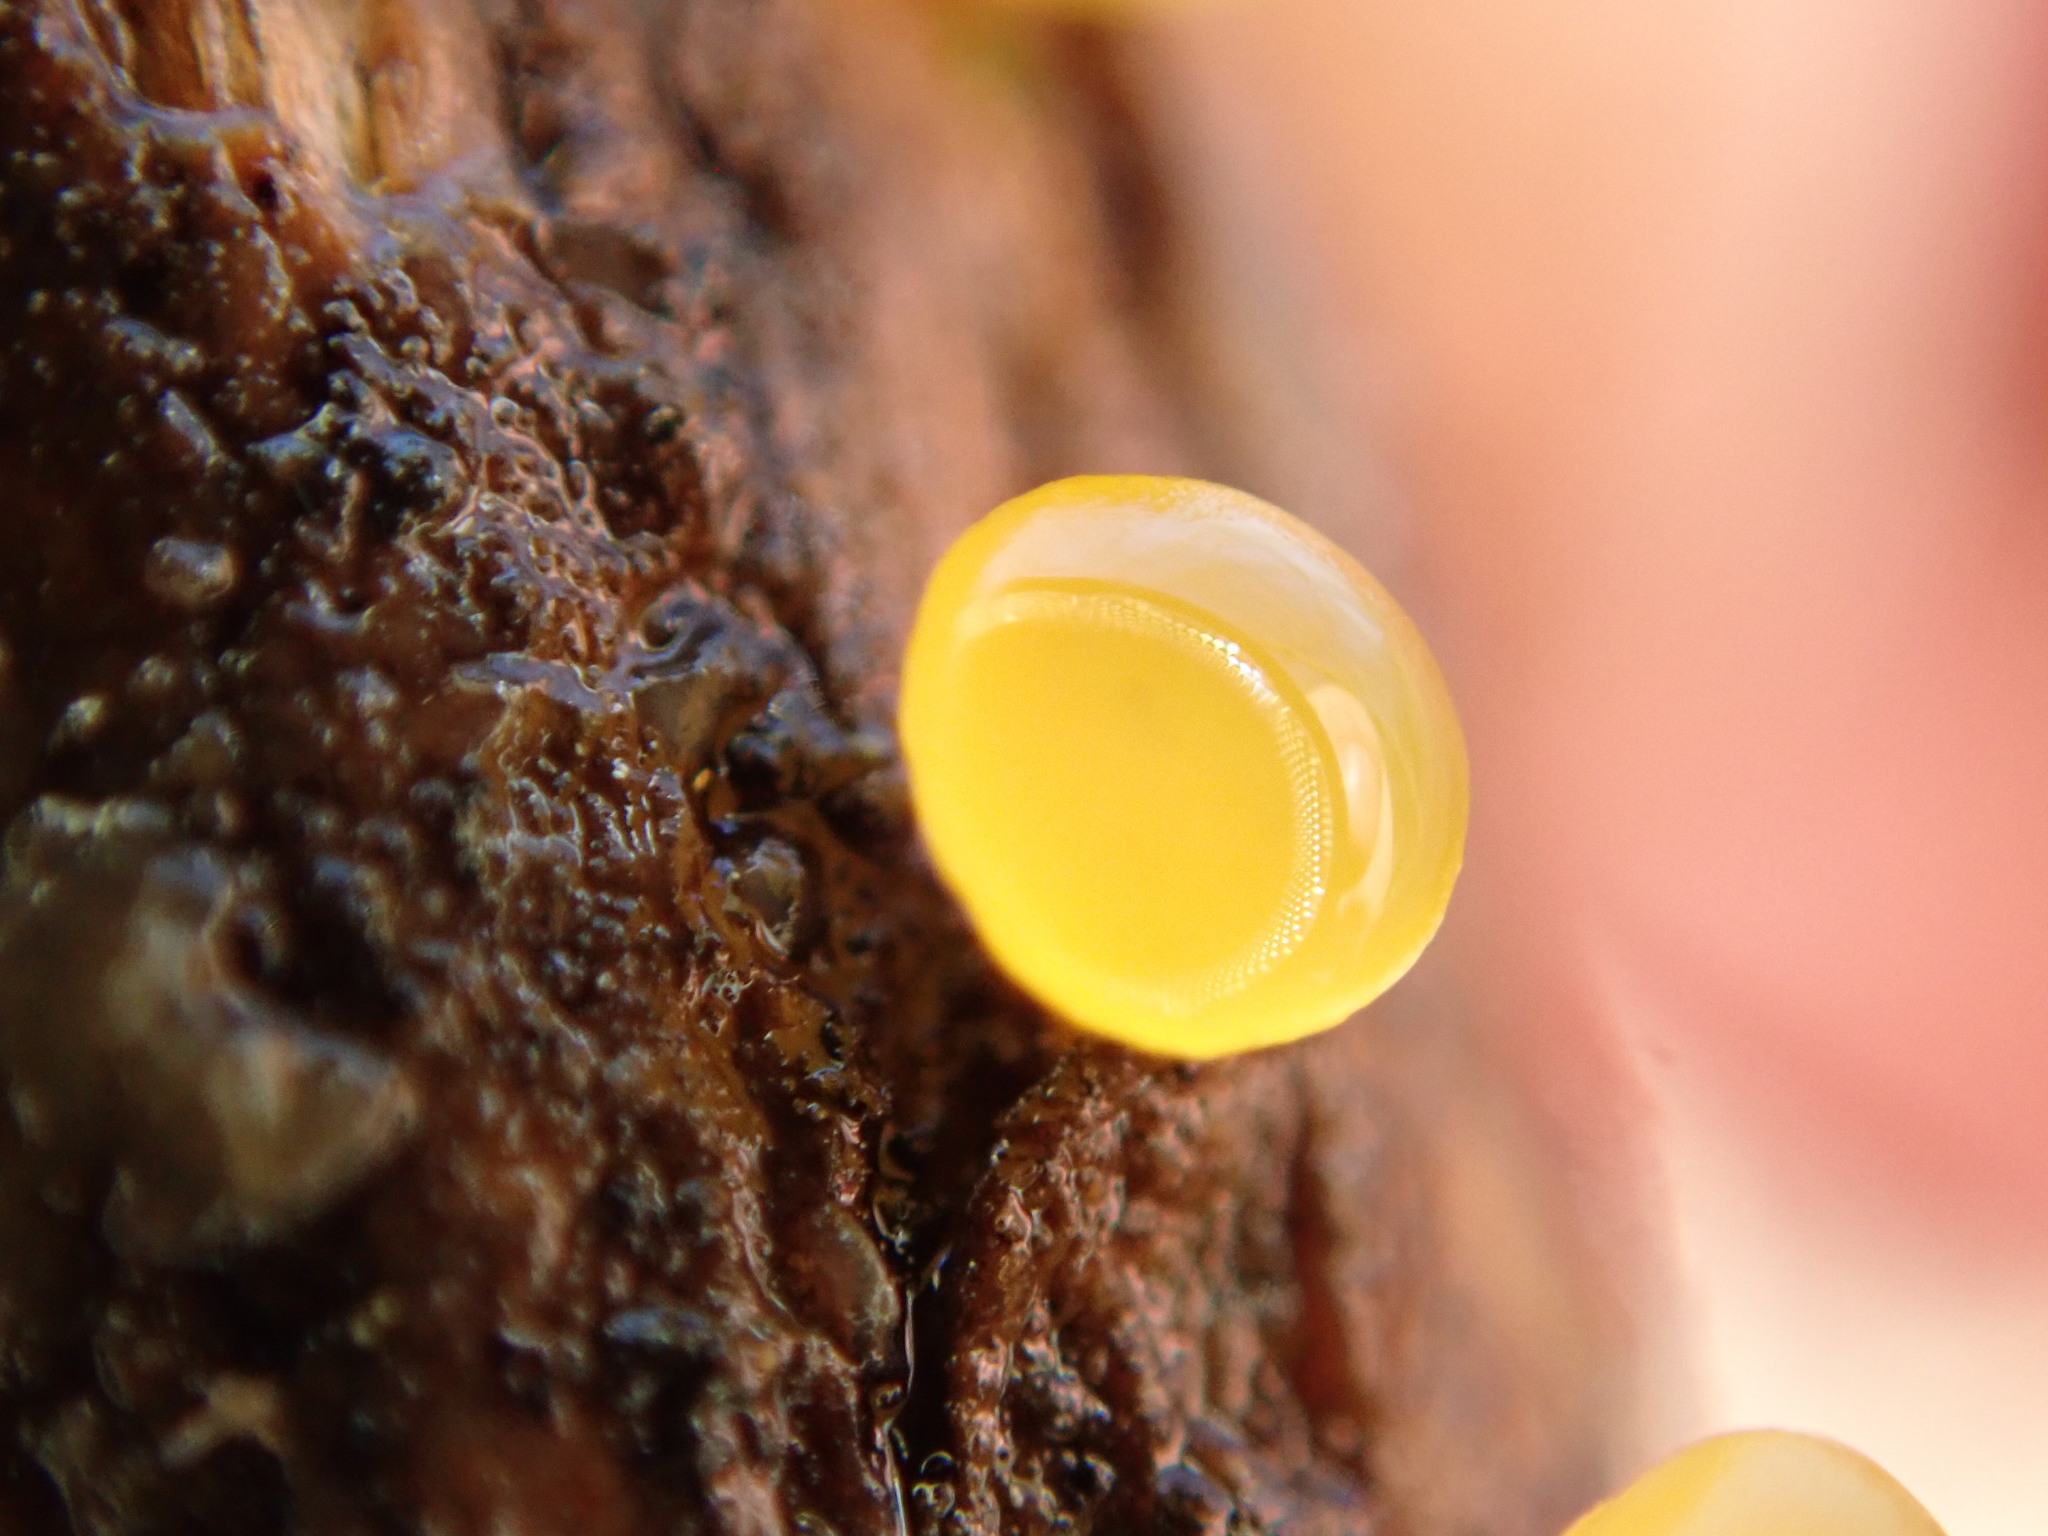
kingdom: Fungi
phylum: Basidiomycota
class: Dacrymycetes
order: Dacrymycetales
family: Dacrymycetaceae
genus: Dacrymyces
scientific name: Dacrymyces stillatus
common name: Common jelly spot
